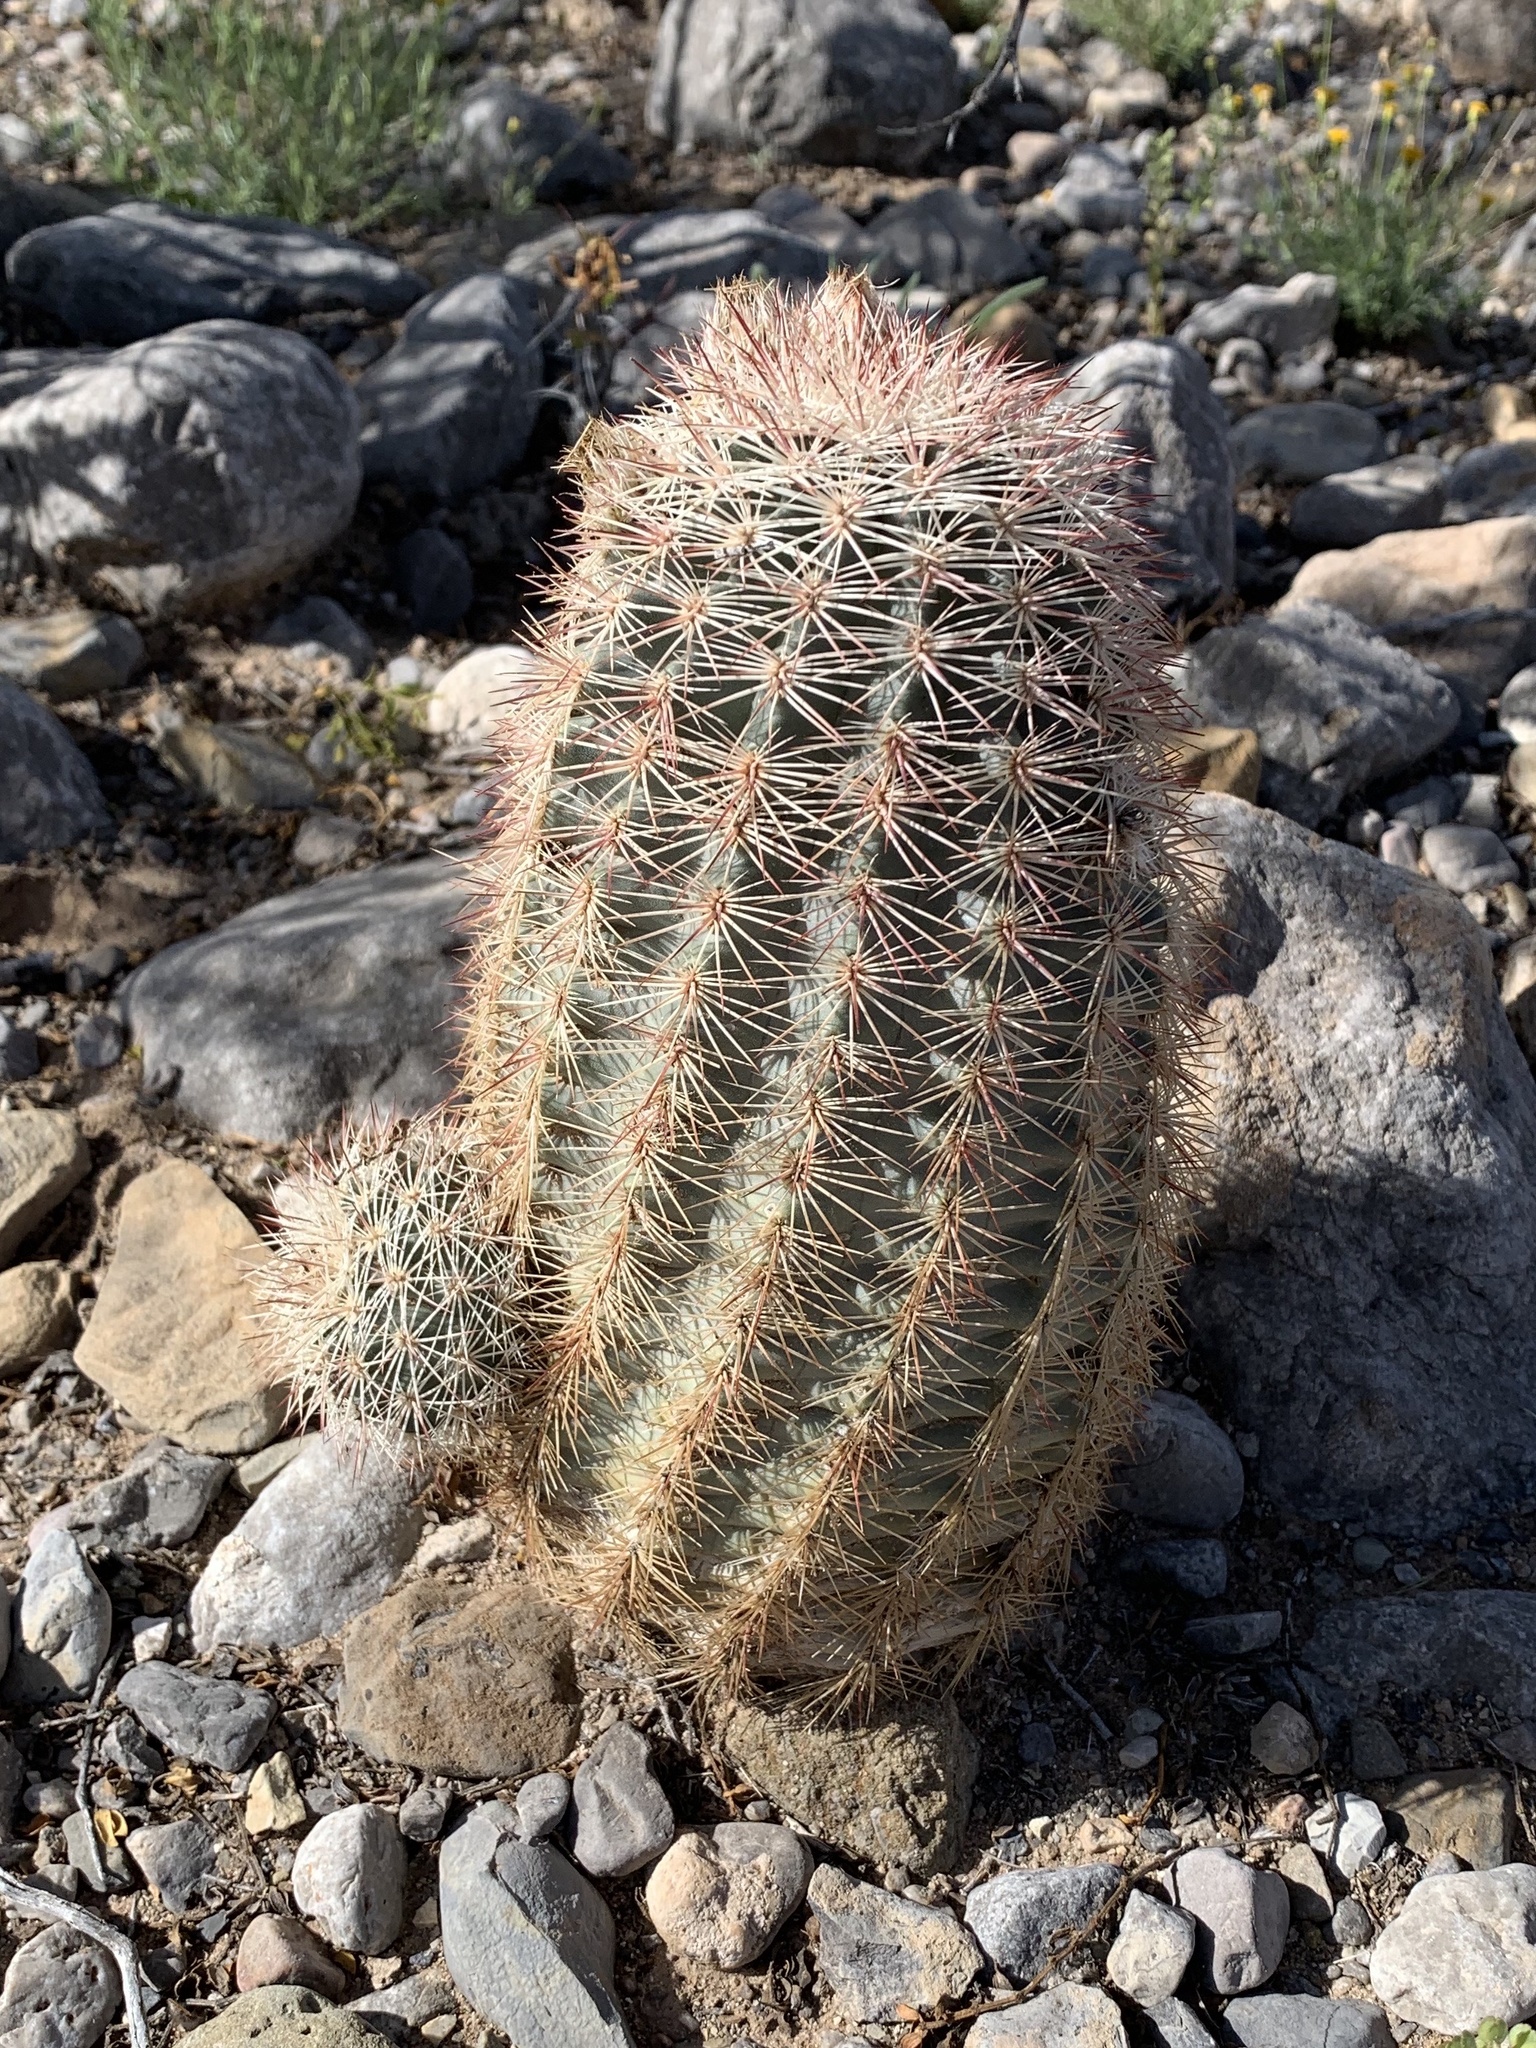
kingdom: Plantae
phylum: Tracheophyta
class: Magnoliopsida
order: Caryophyllales
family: Cactaceae
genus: Echinocereus
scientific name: Echinocereus dasyacanthus
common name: Spiny hedgehog cactus
